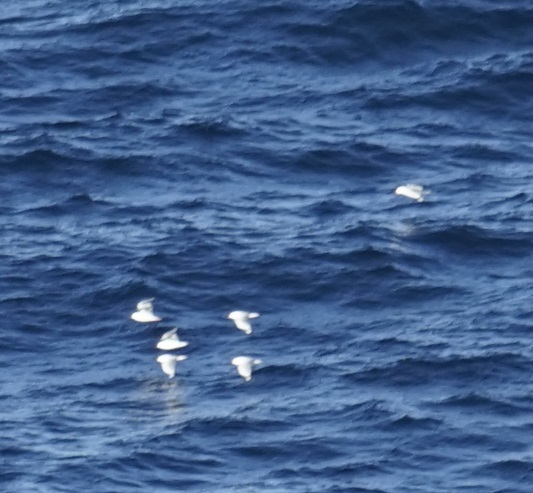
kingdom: Animalia
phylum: Chordata
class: Aves
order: Charadriiformes
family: Laridae
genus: Chroicocephalus
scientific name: Chroicocephalus novaehollandiae
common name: Silver gull
